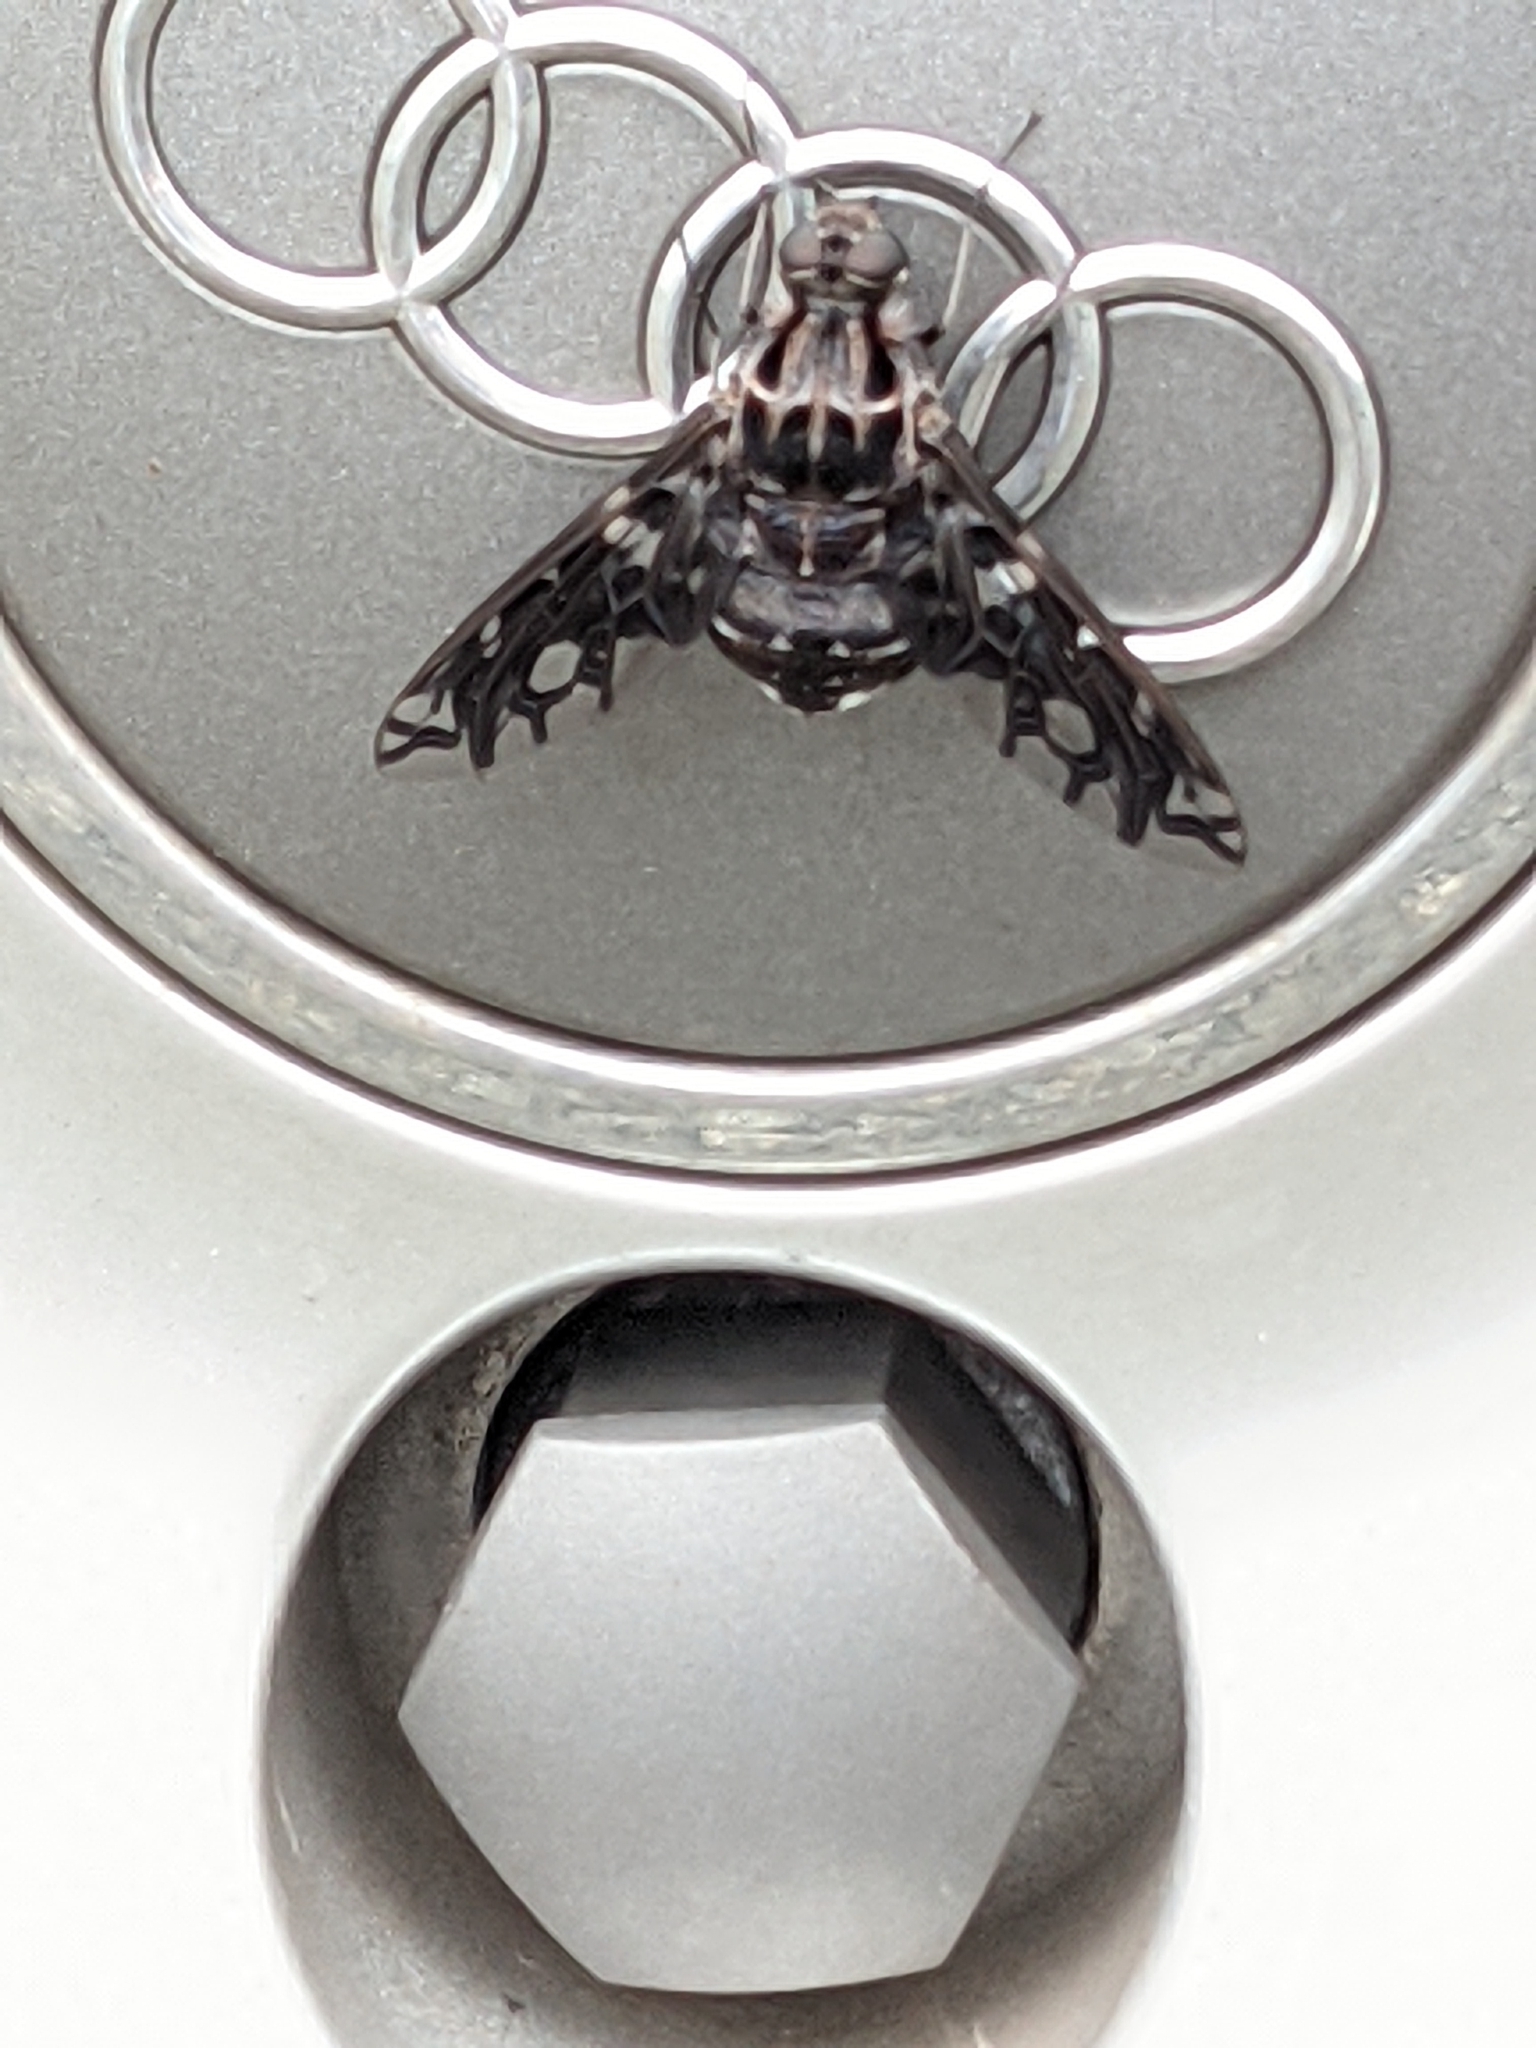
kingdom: Animalia
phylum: Arthropoda
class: Insecta
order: Diptera
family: Bombyliidae
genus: Xenox
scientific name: Xenox tigrinus
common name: Tiger bee fly
